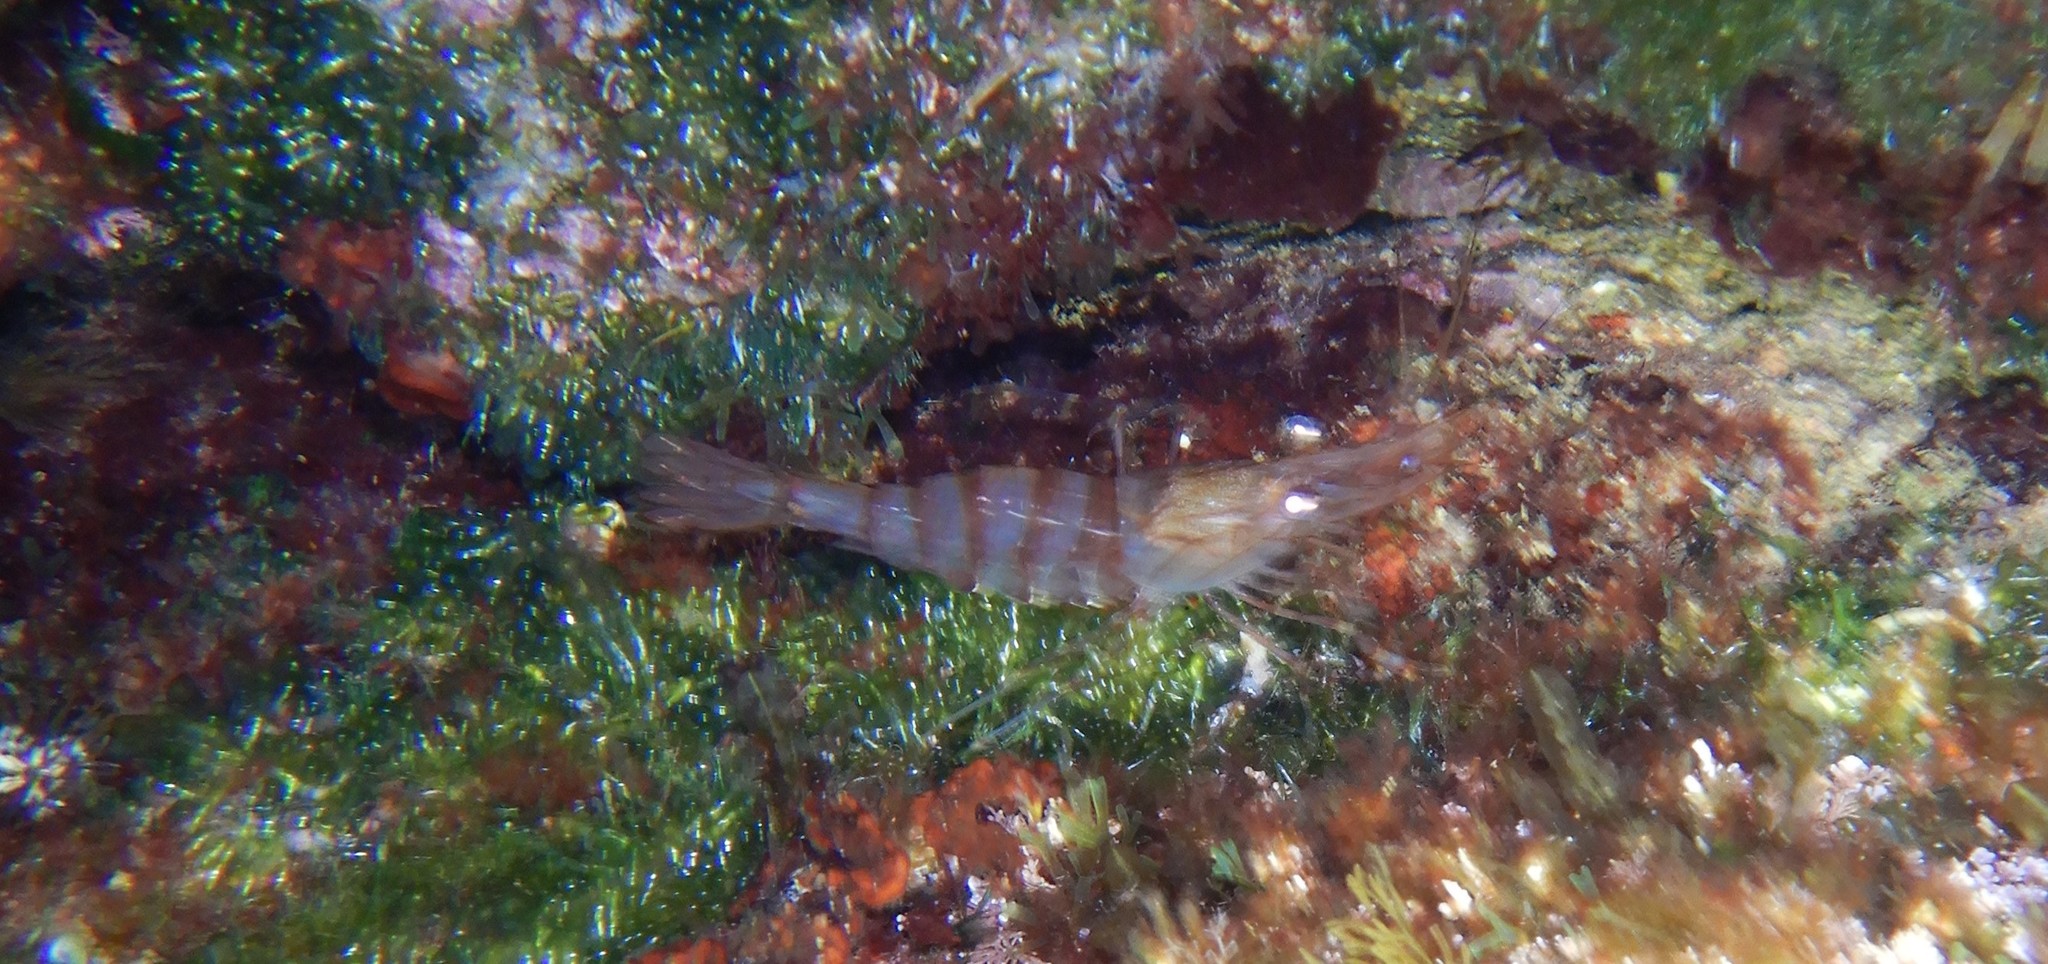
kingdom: Animalia
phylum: Arthropoda
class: Malacostraca
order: Decapoda
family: Palaemonidae
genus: Palaemon
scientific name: Palaemon serratus
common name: Common prawn
